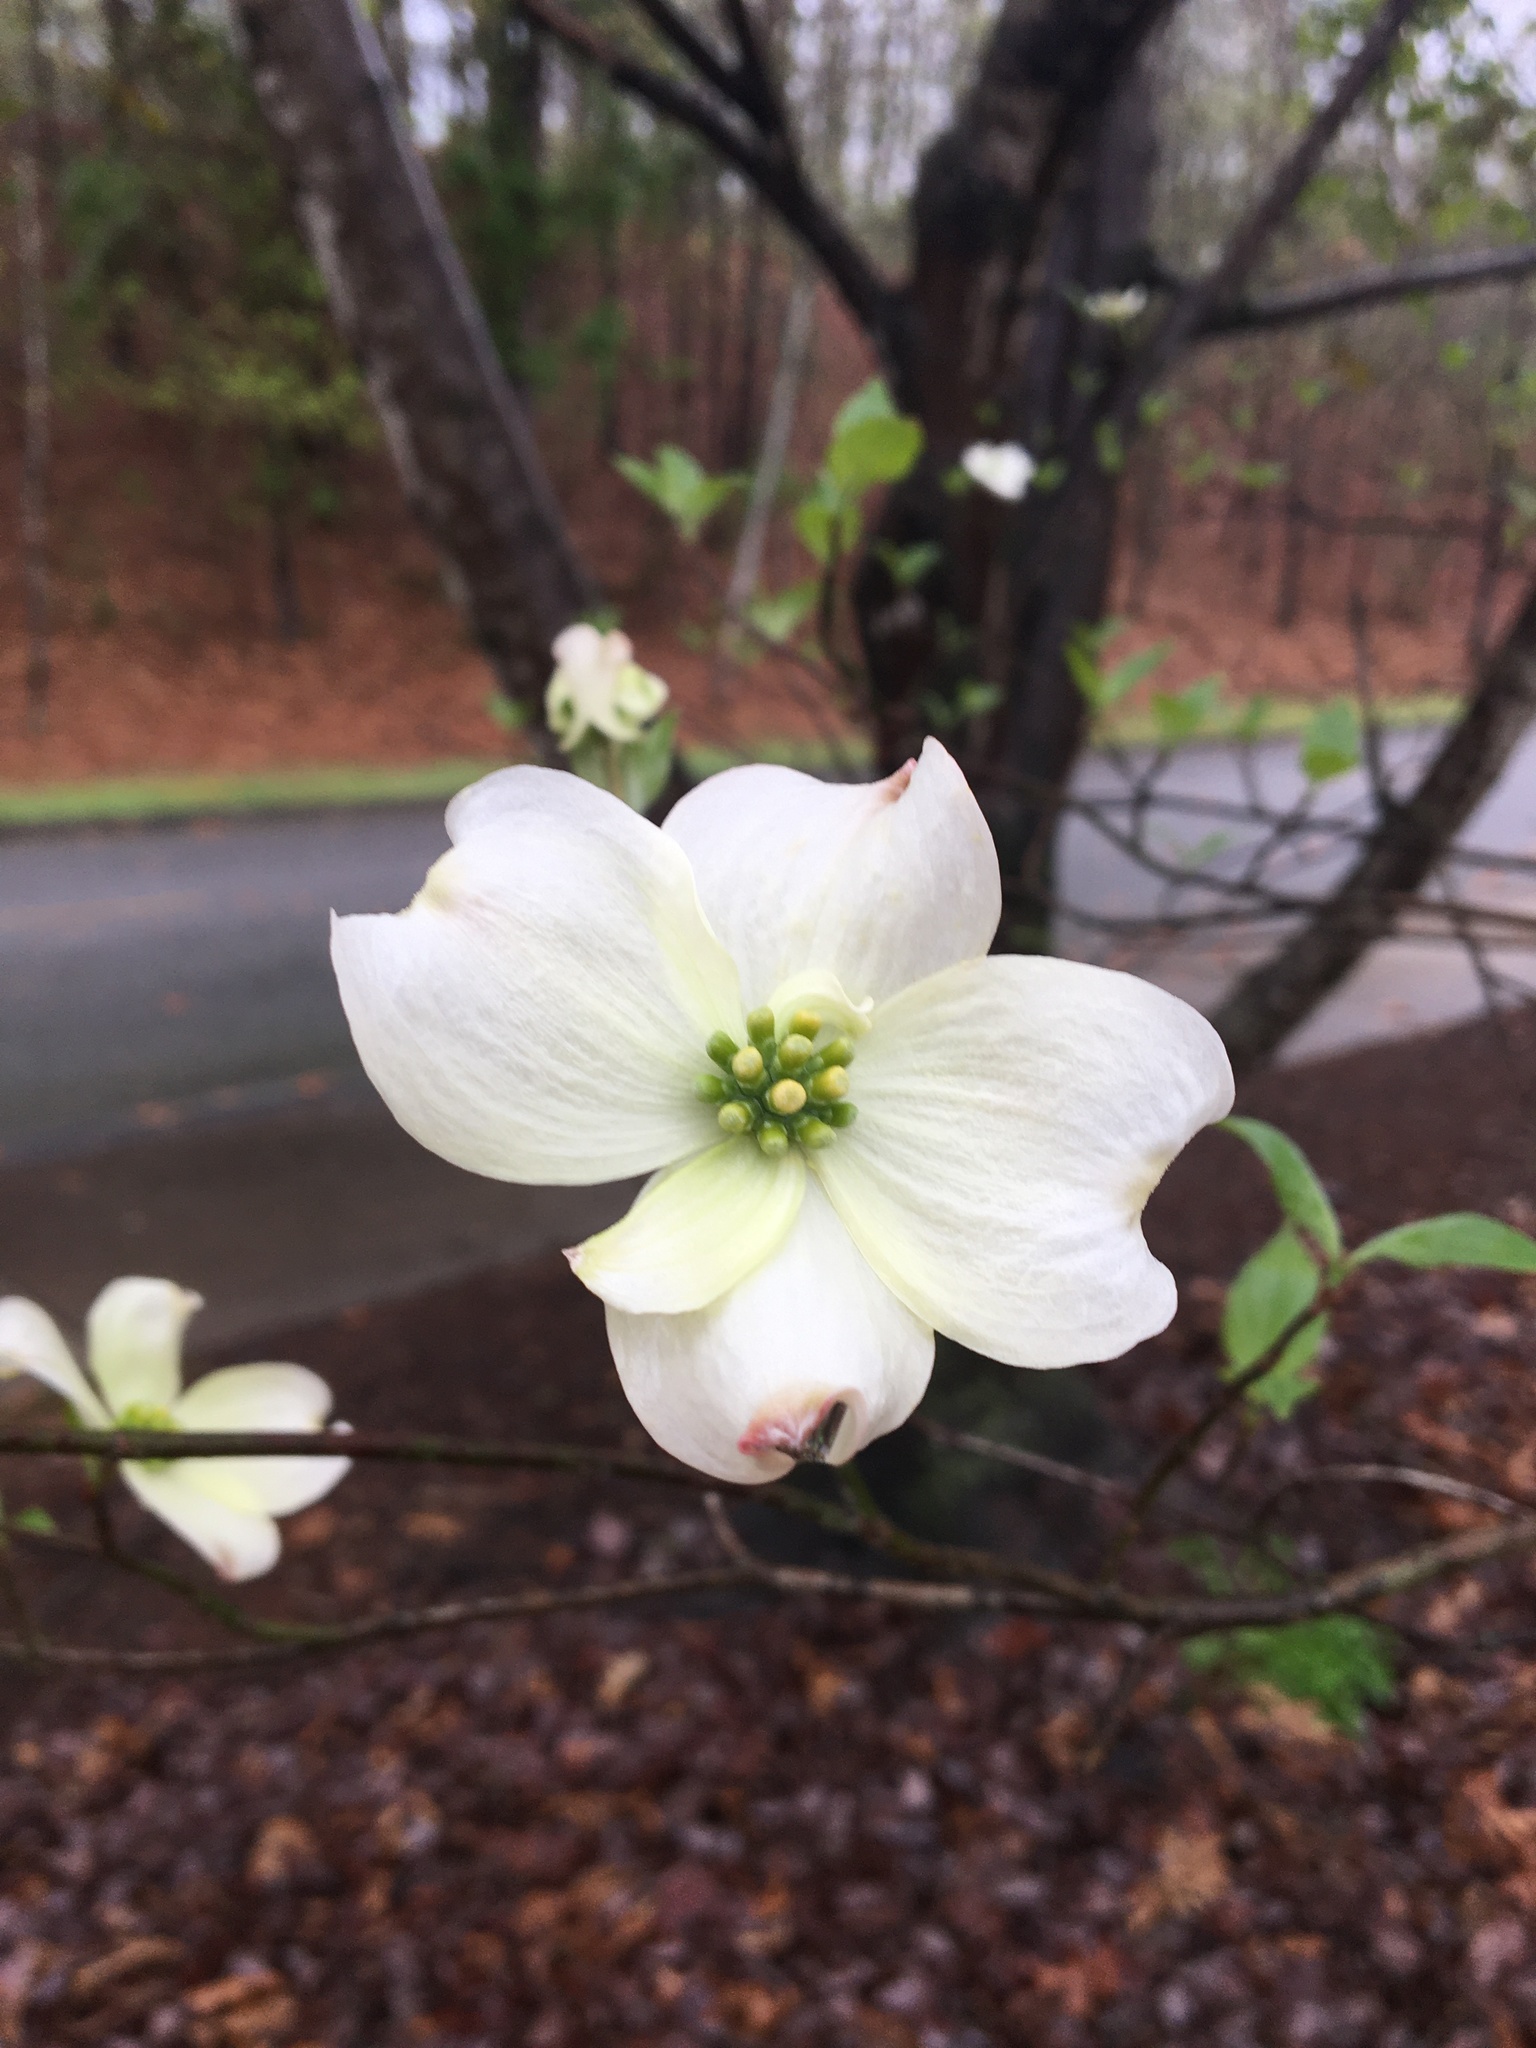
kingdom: Plantae
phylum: Tracheophyta
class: Magnoliopsida
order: Cornales
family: Cornaceae
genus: Cornus
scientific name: Cornus florida
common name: Flowering dogwood
